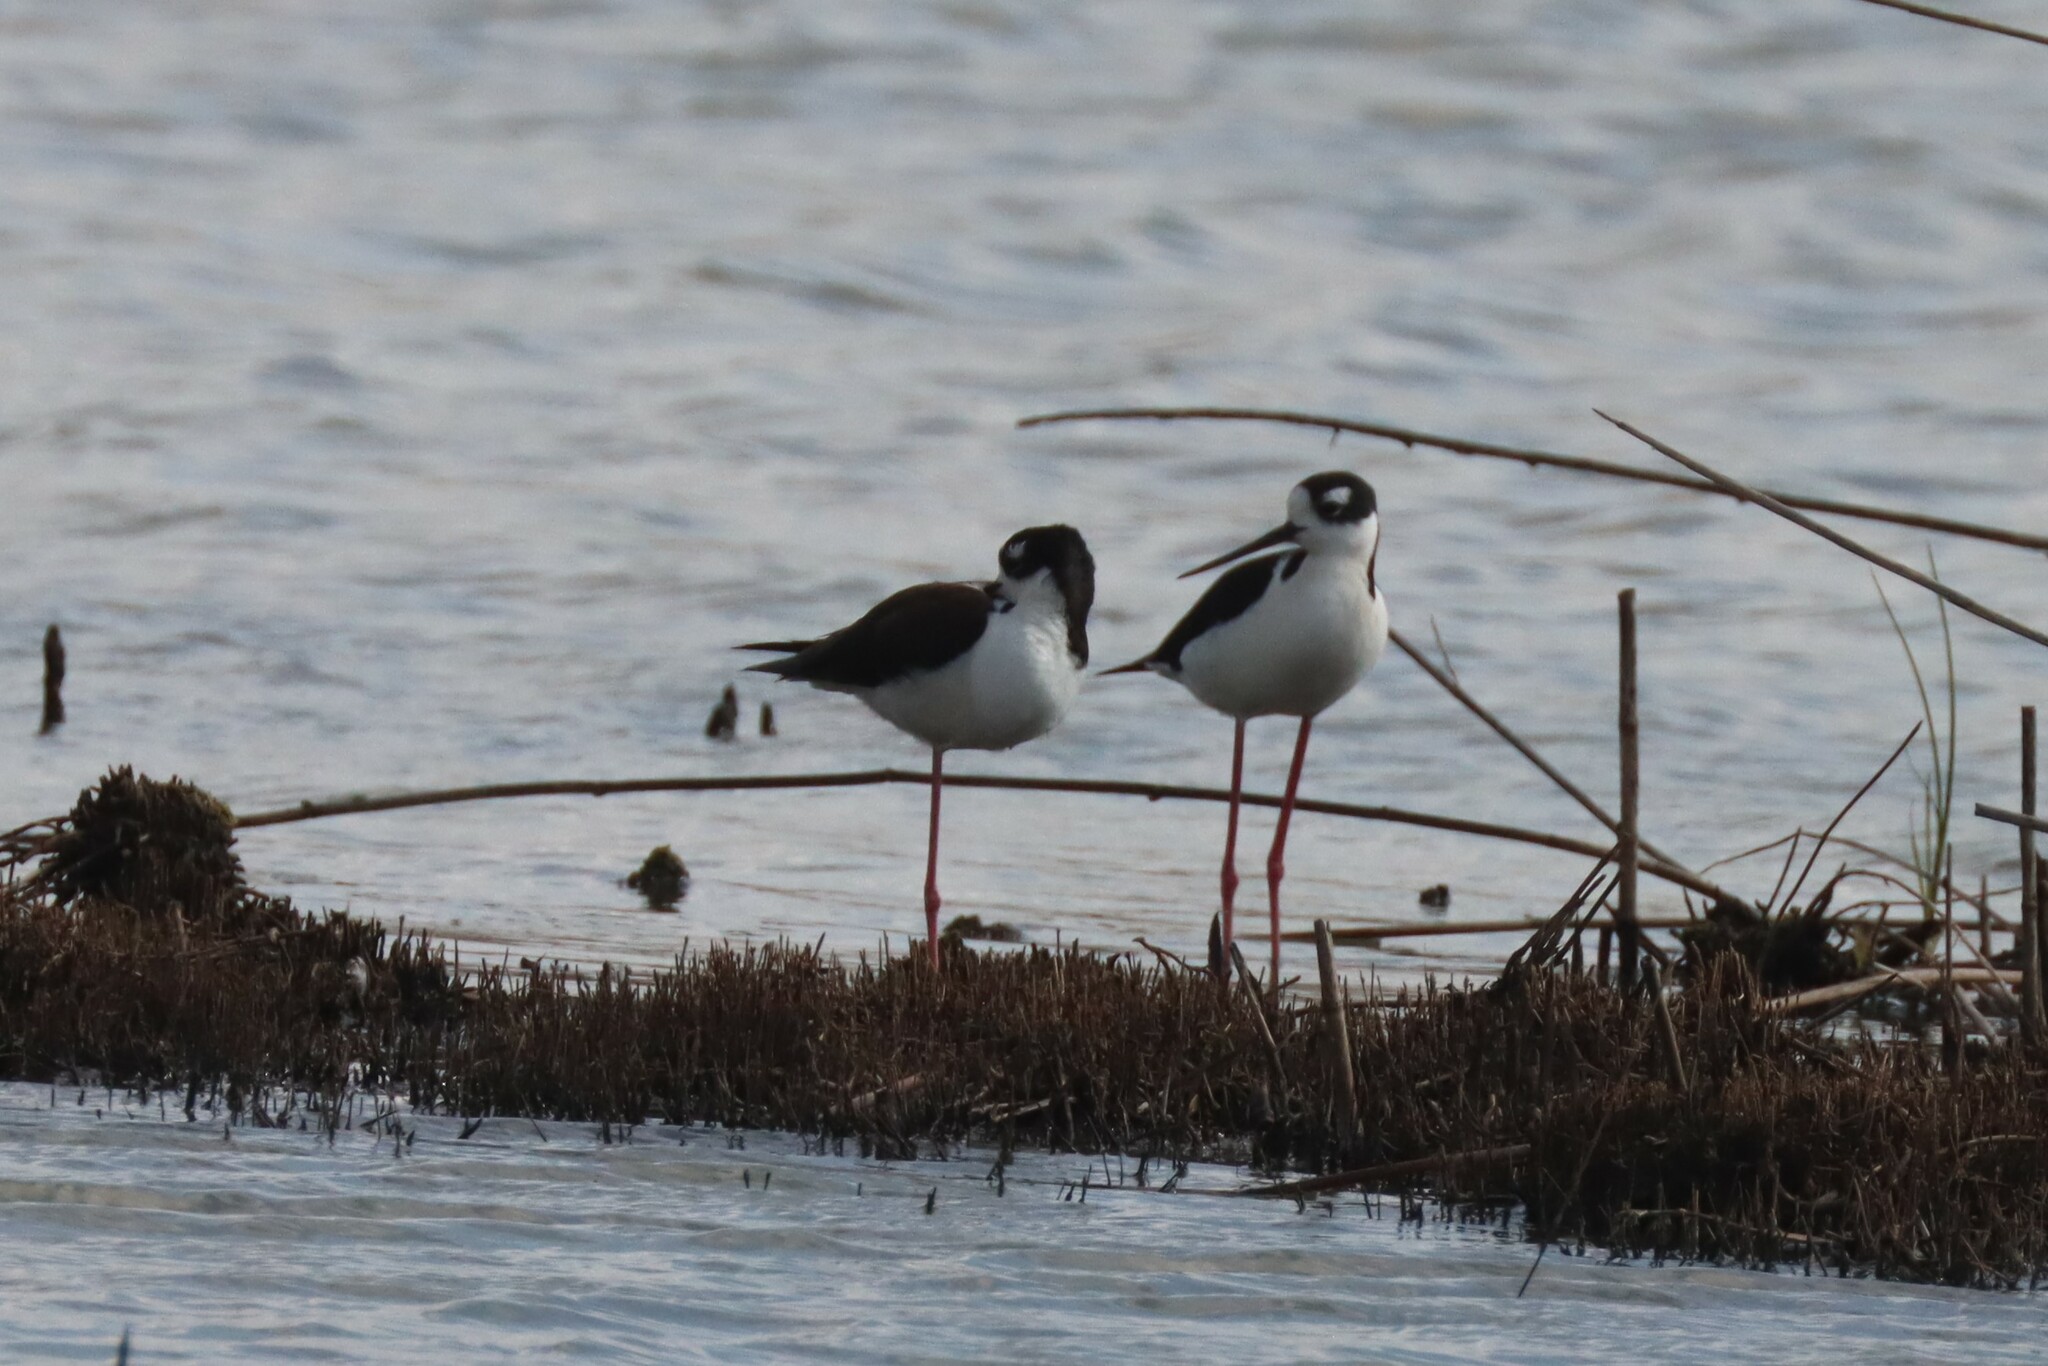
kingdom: Animalia
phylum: Chordata
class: Aves
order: Charadriiformes
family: Recurvirostridae
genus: Himantopus
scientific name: Himantopus mexicanus
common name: Black-necked stilt
